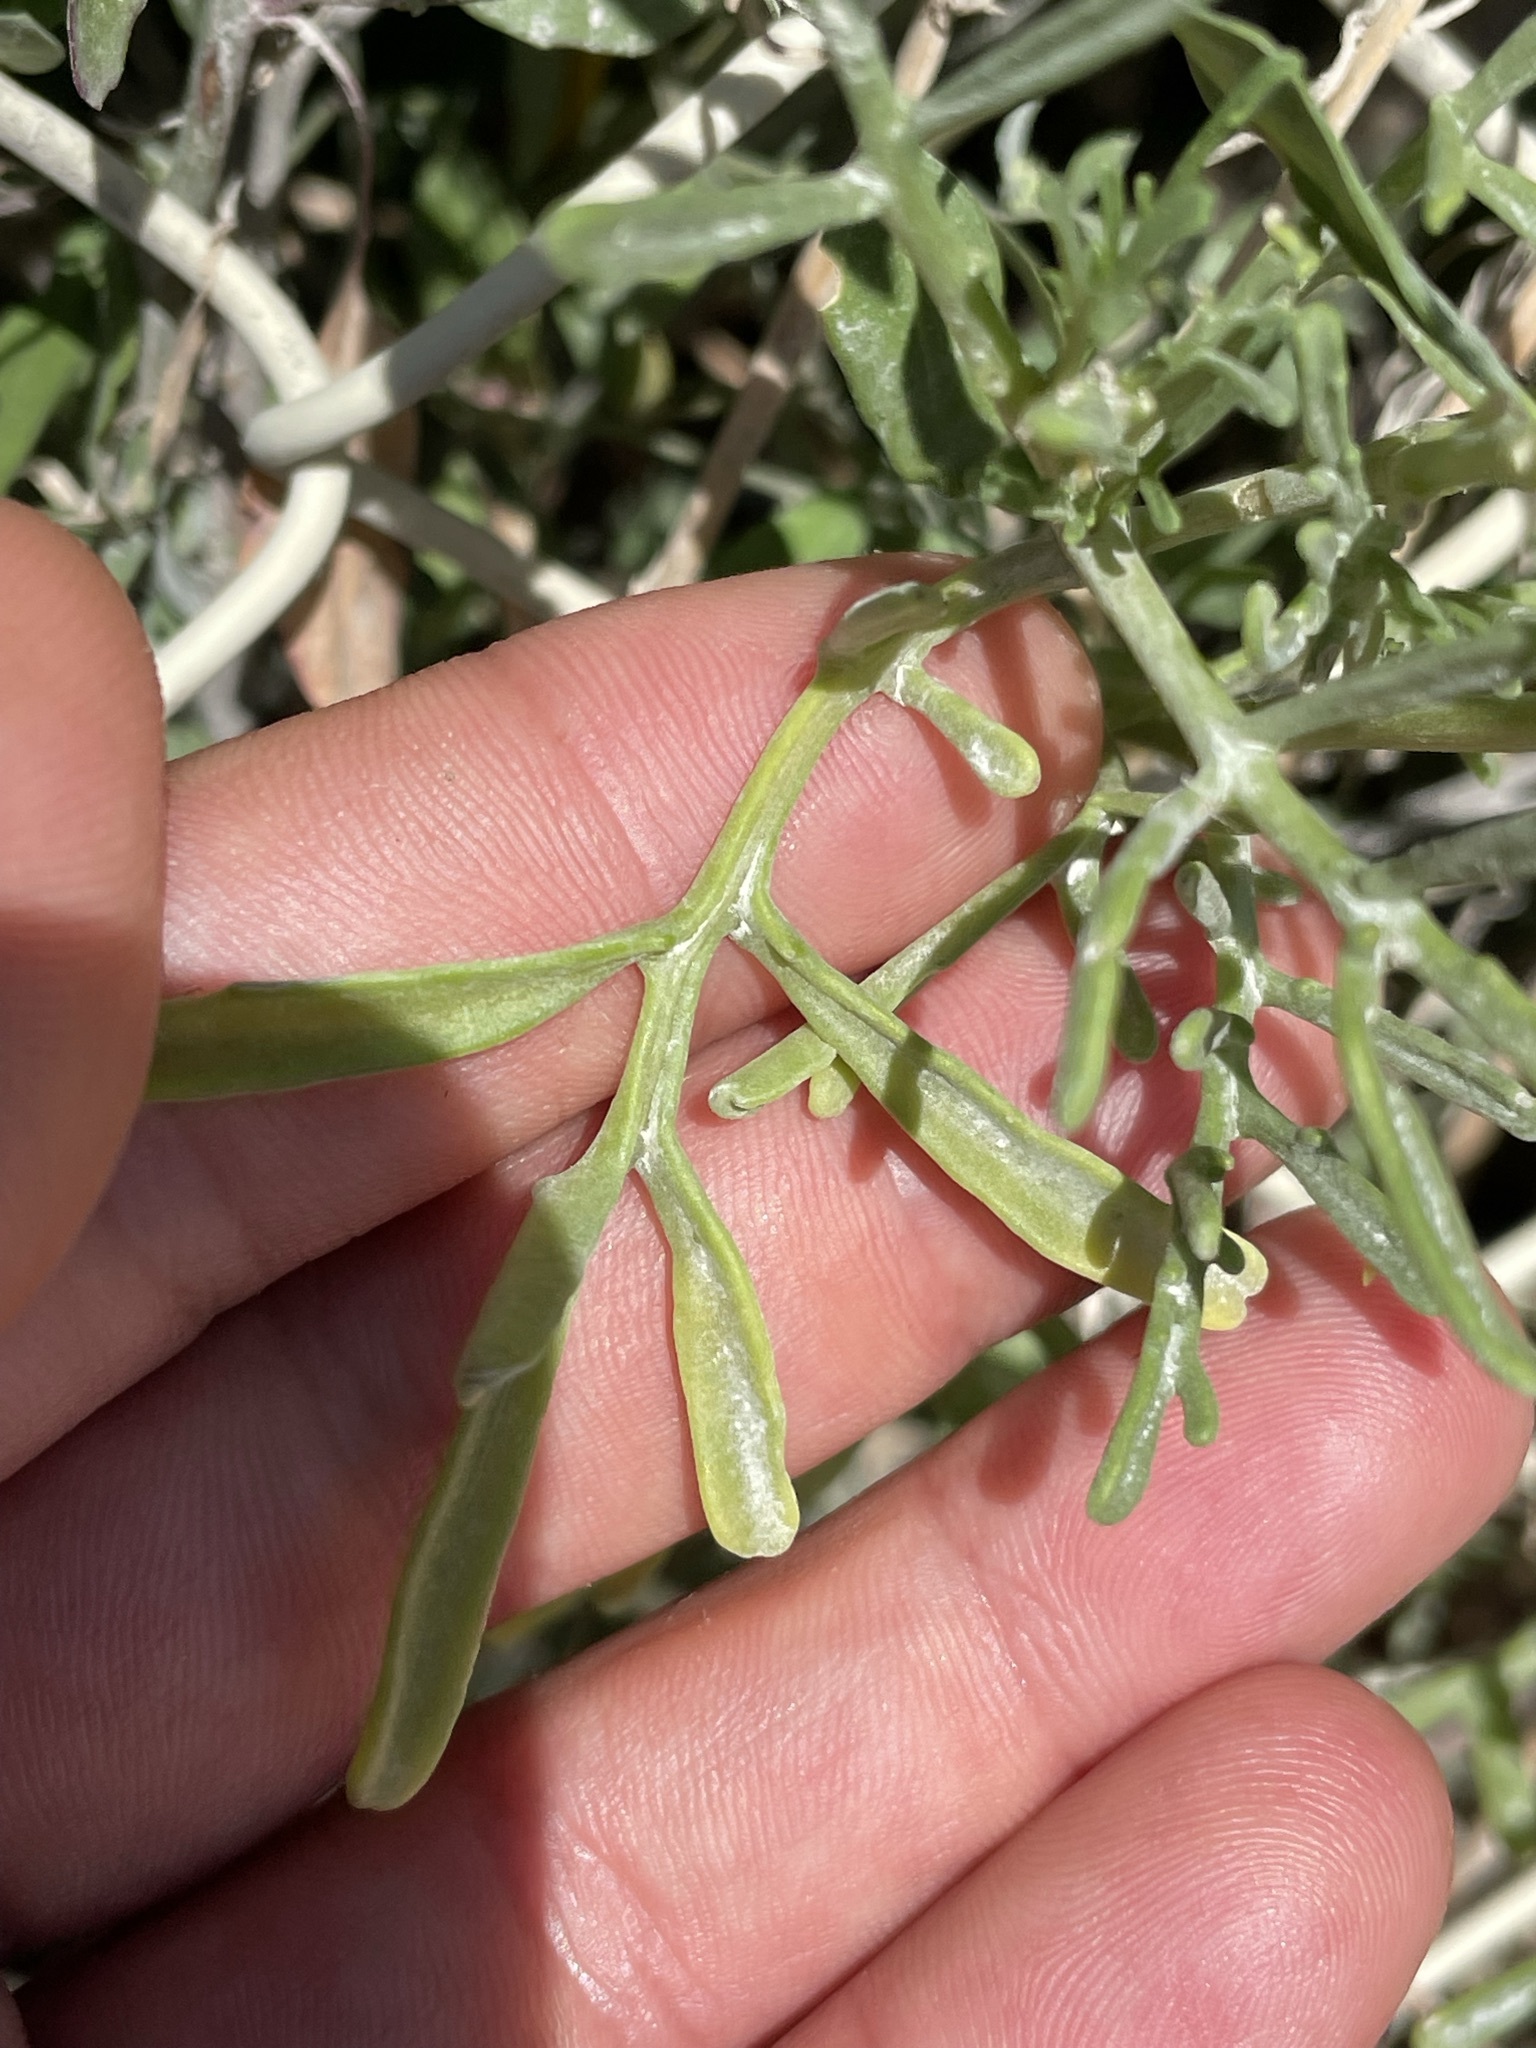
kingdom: Plantae
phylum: Tracheophyta
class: Magnoliopsida
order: Brassicales
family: Brassicaceae
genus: Cakile
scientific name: Cakile maritima
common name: Sea rocket
